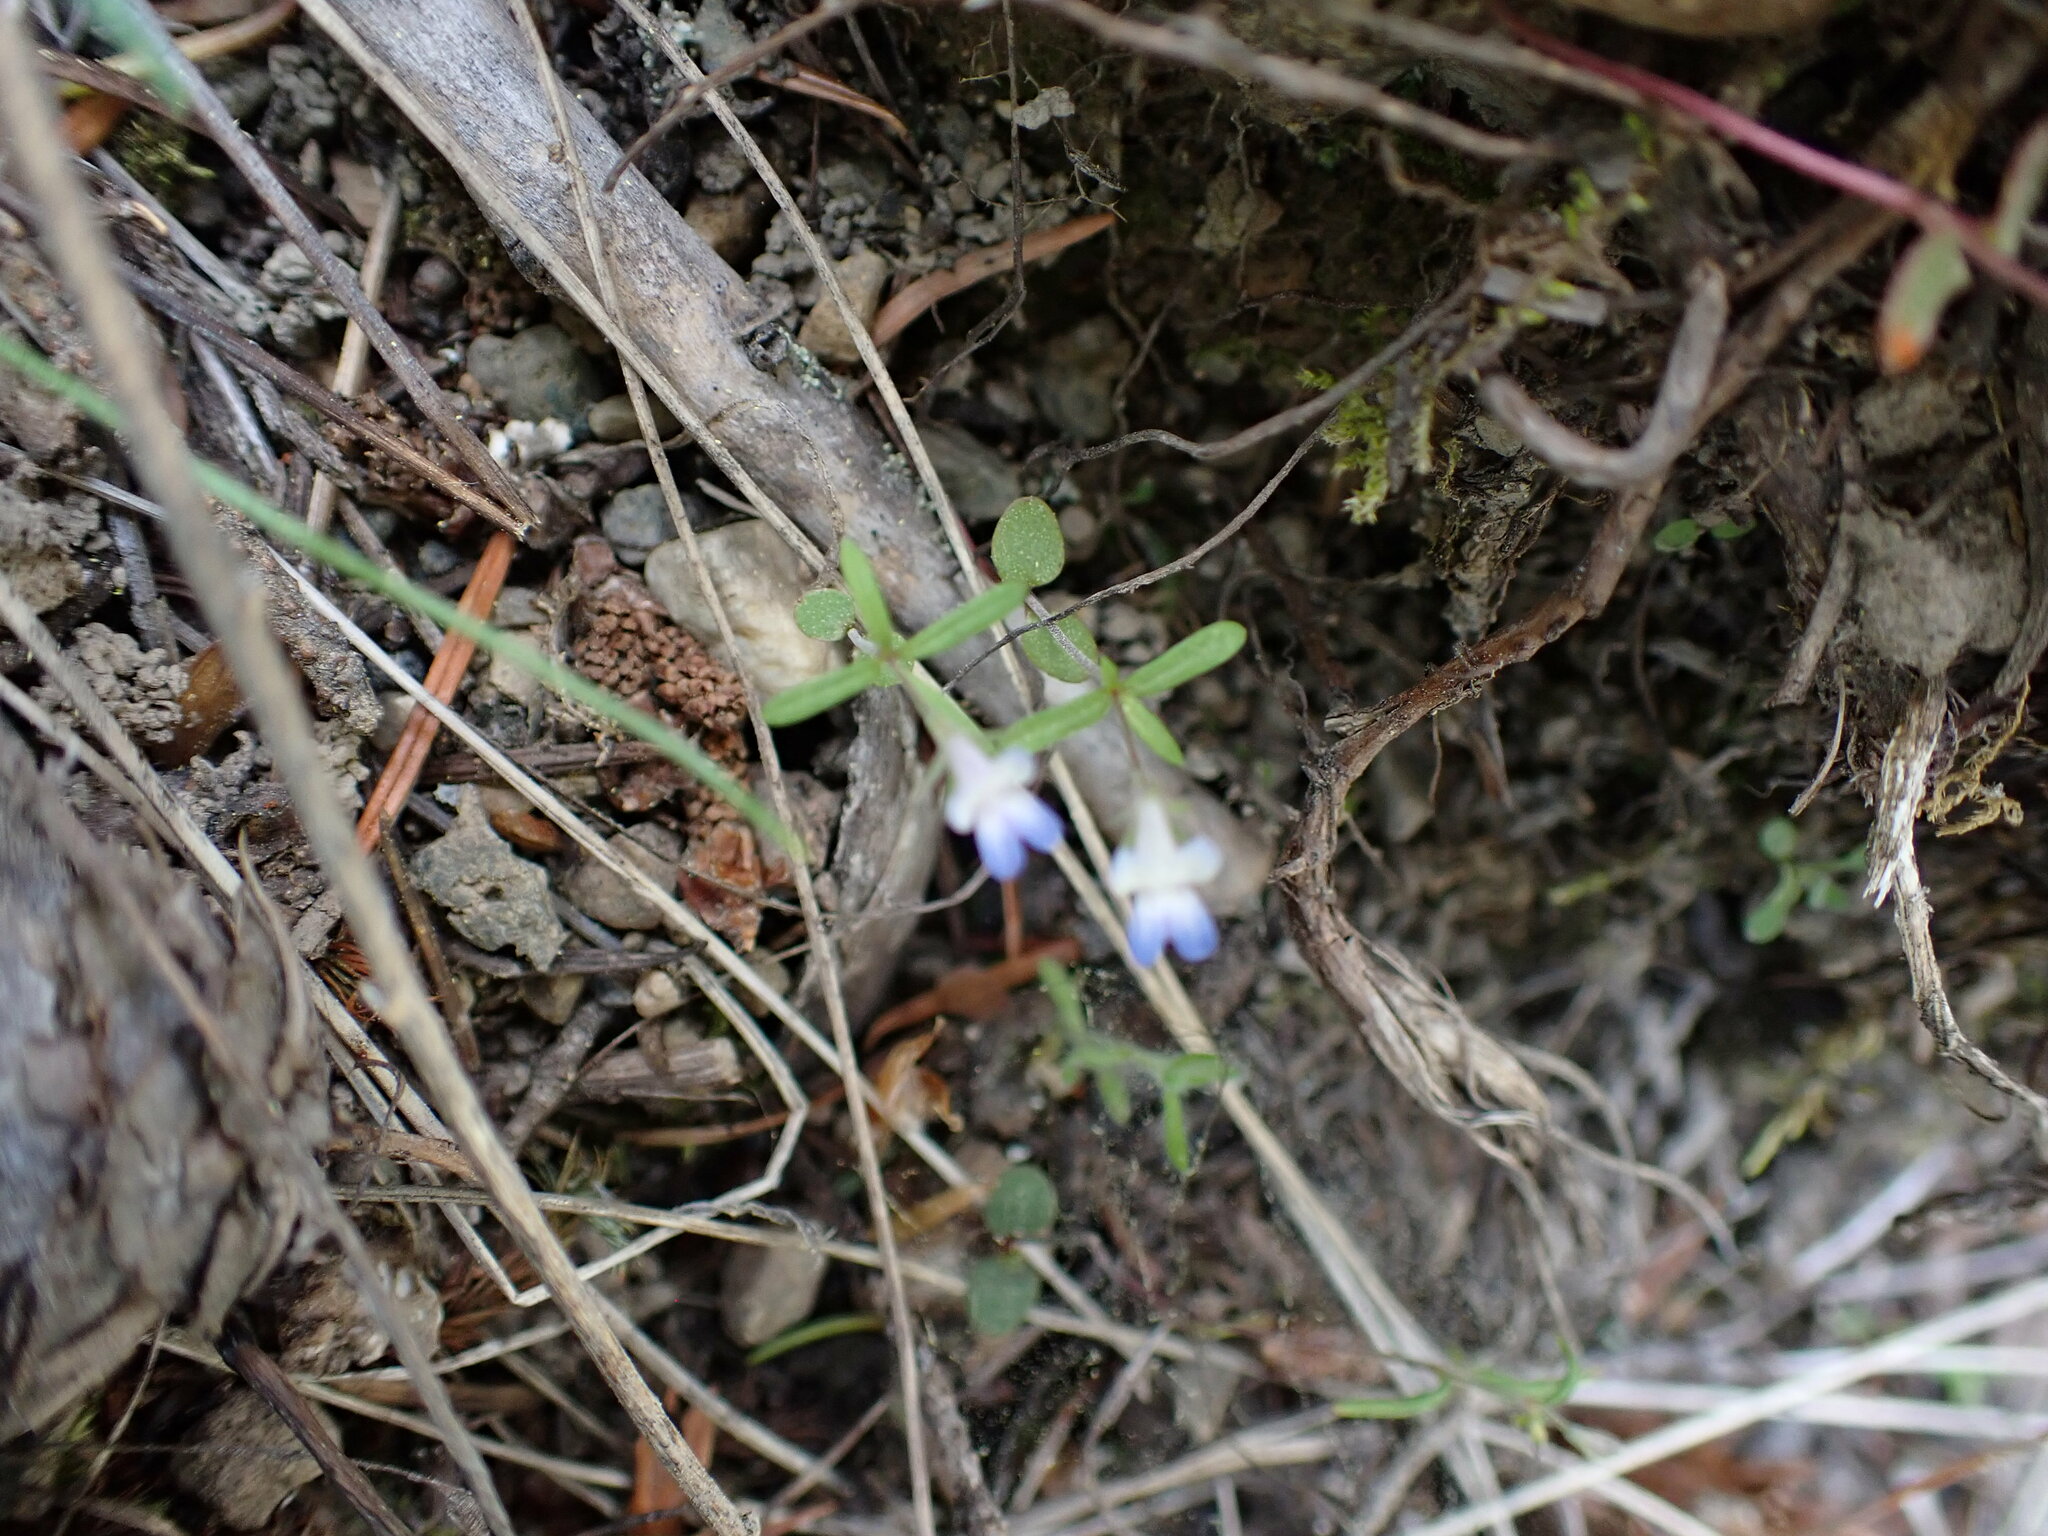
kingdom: Plantae
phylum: Tracheophyta
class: Magnoliopsida
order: Lamiales
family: Plantaginaceae
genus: Collinsia
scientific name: Collinsia parviflora
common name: Blue-lips
